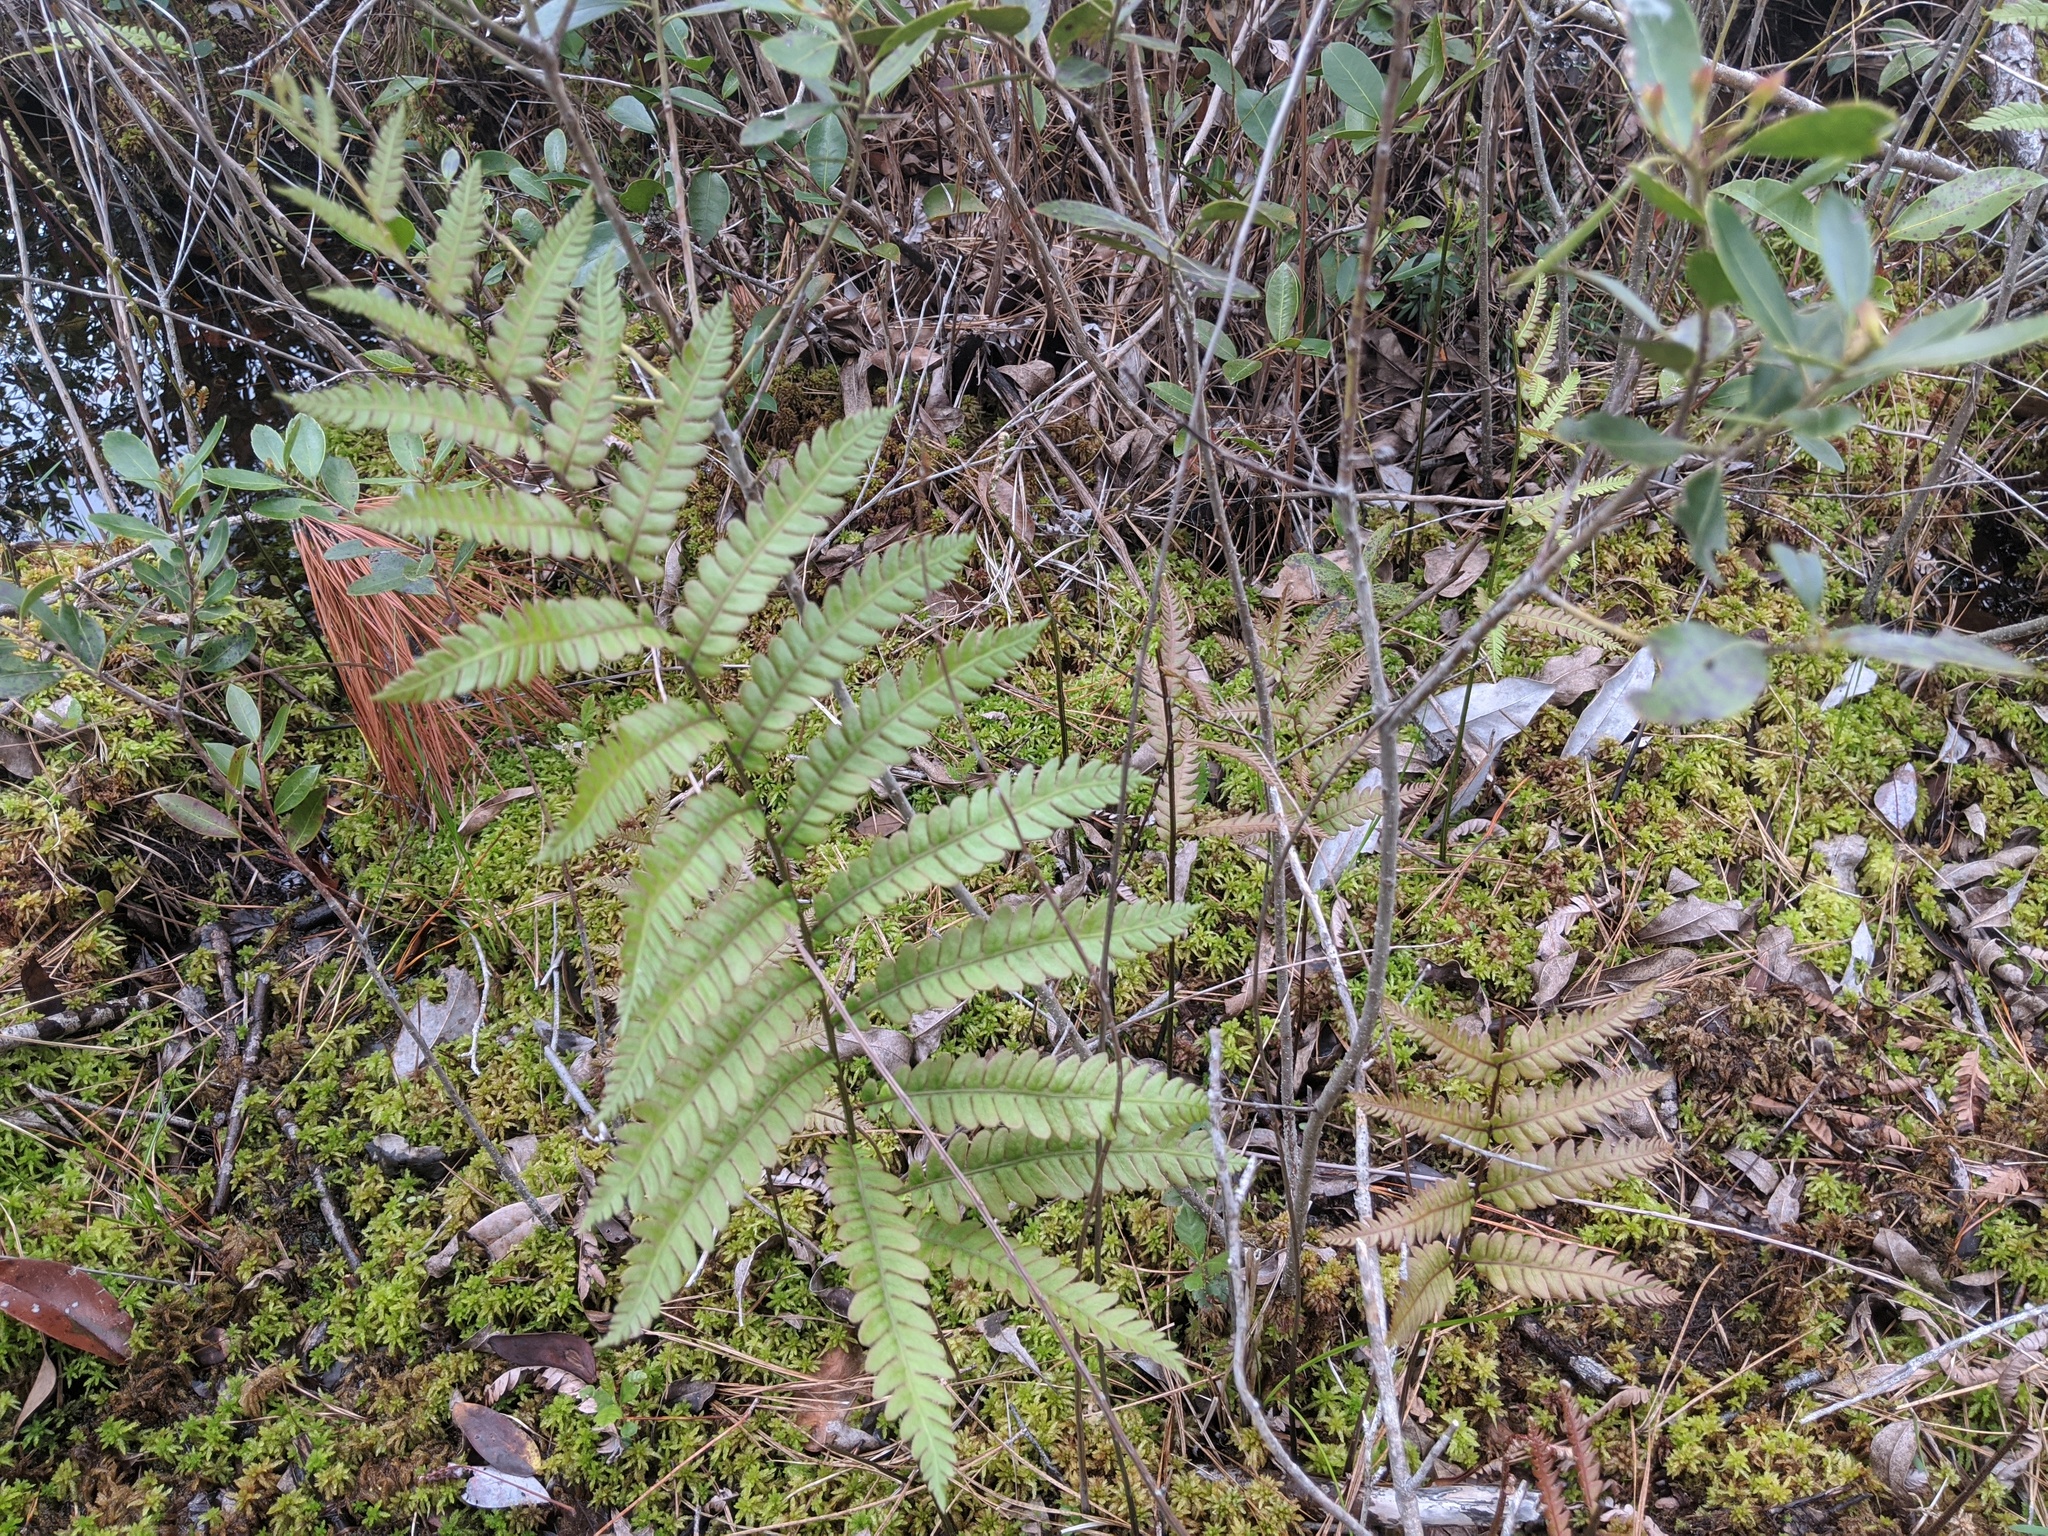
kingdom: Plantae
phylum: Tracheophyta
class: Polypodiopsida
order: Polypodiales
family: Blechnaceae
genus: Anchistea
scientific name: Anchistea virginica
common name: Virginia chain fern
